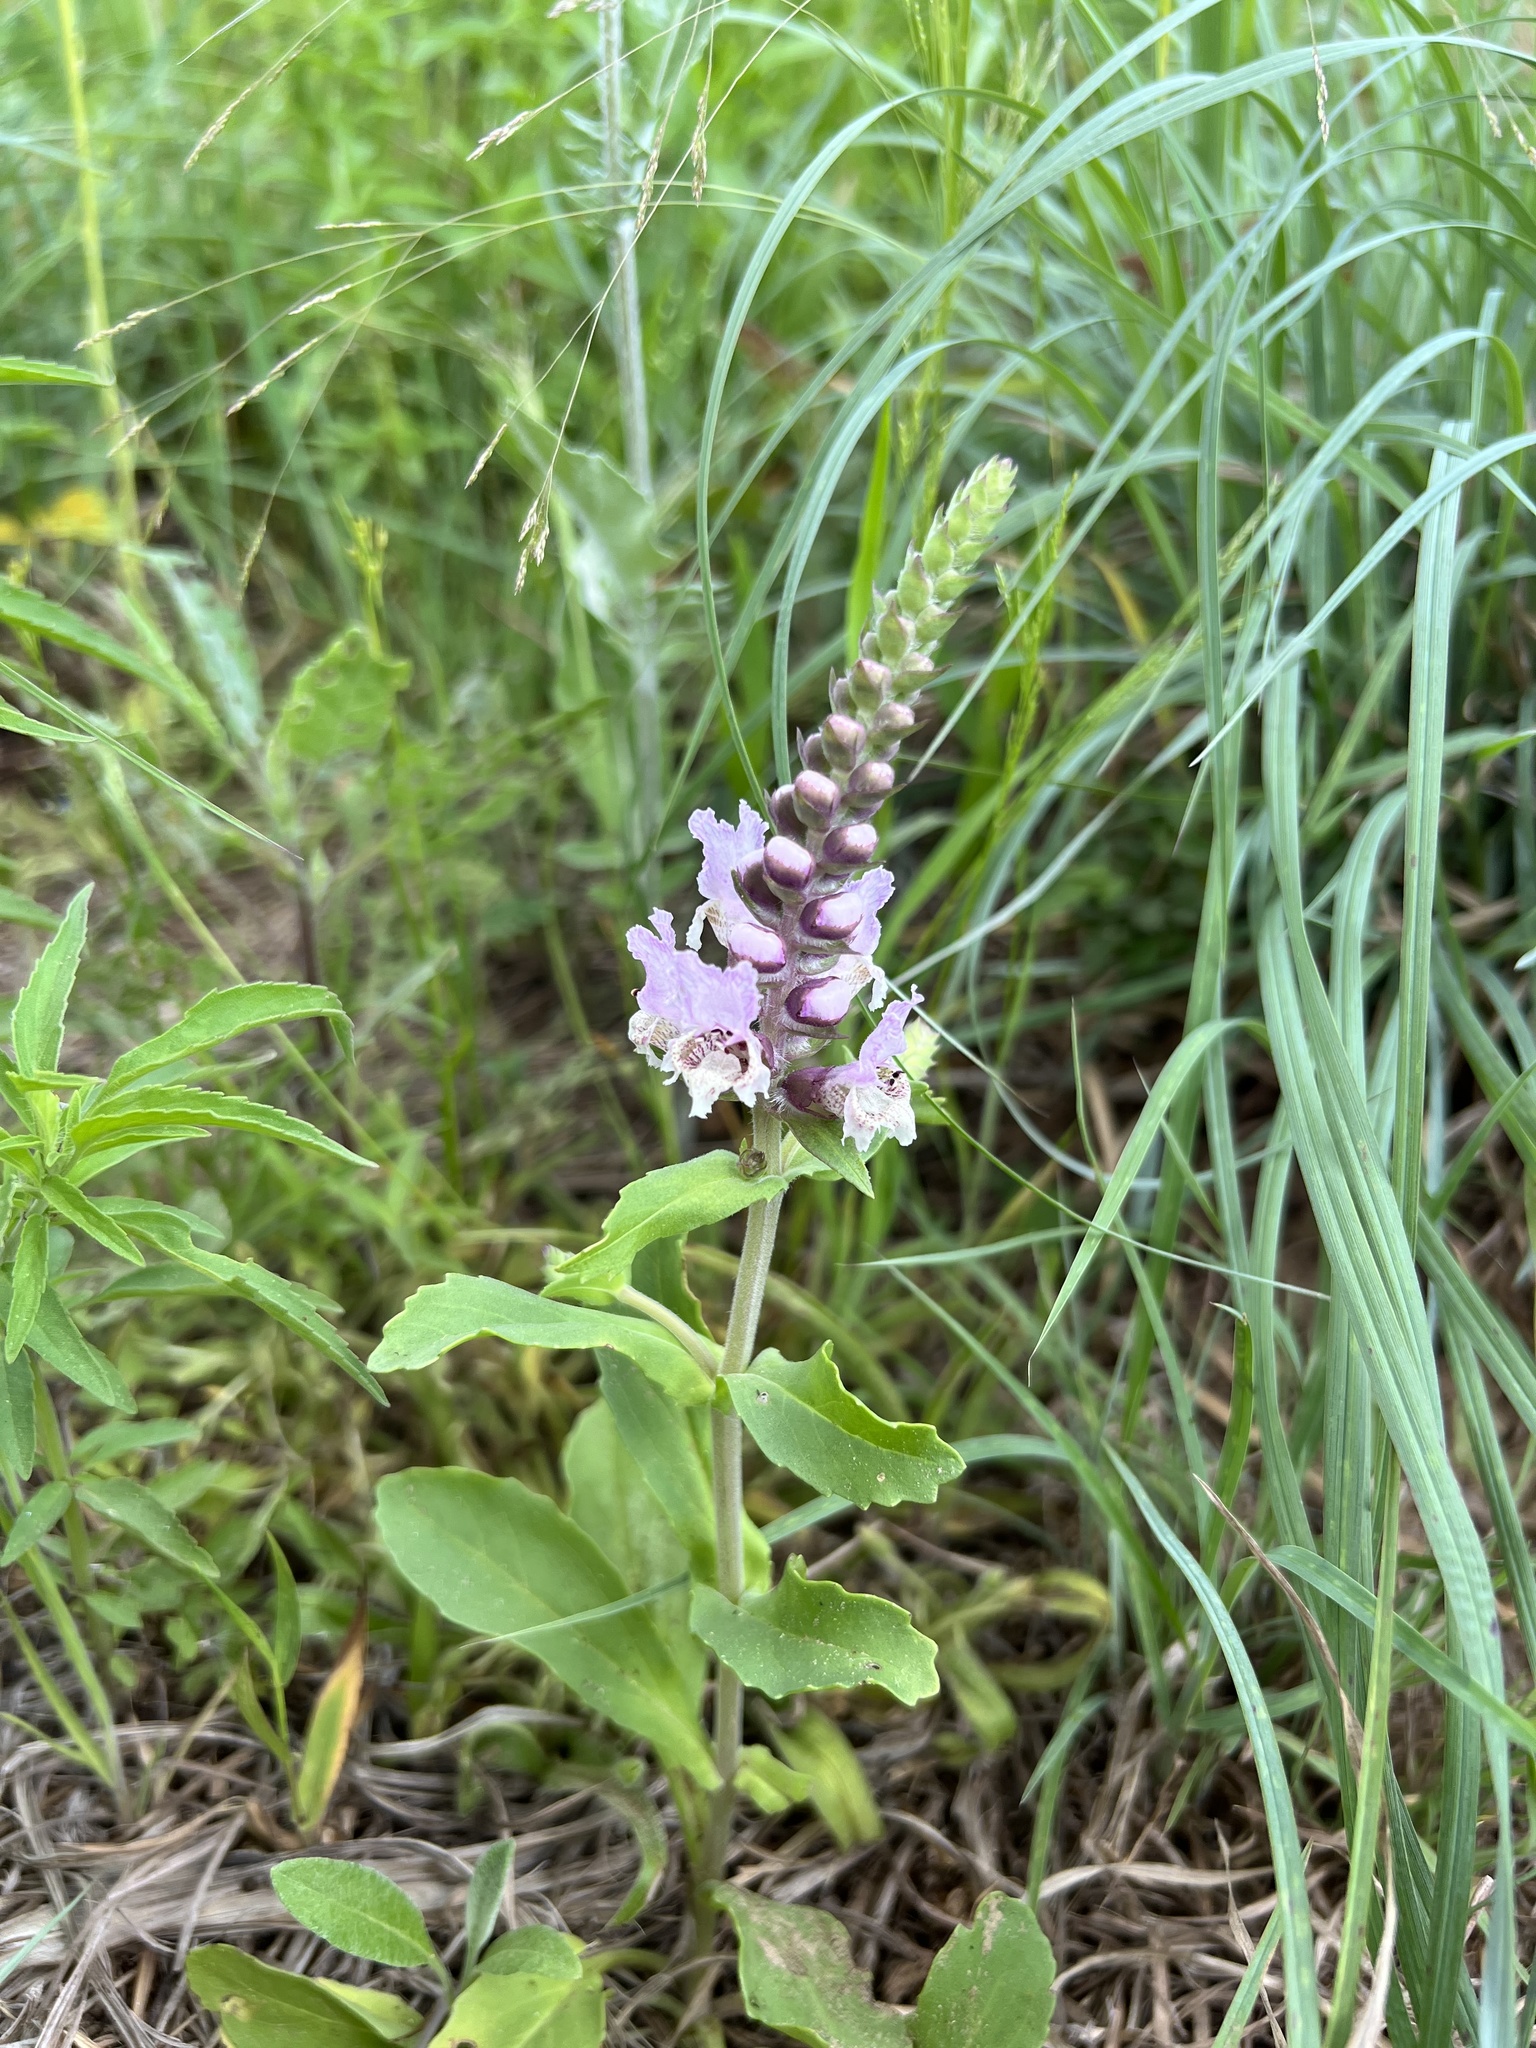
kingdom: Plantae
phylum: Tracheophyta
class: Magnoliopsida
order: Lamiales
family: Lamiaceae
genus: Brazoria
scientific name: Brazoria truncata
